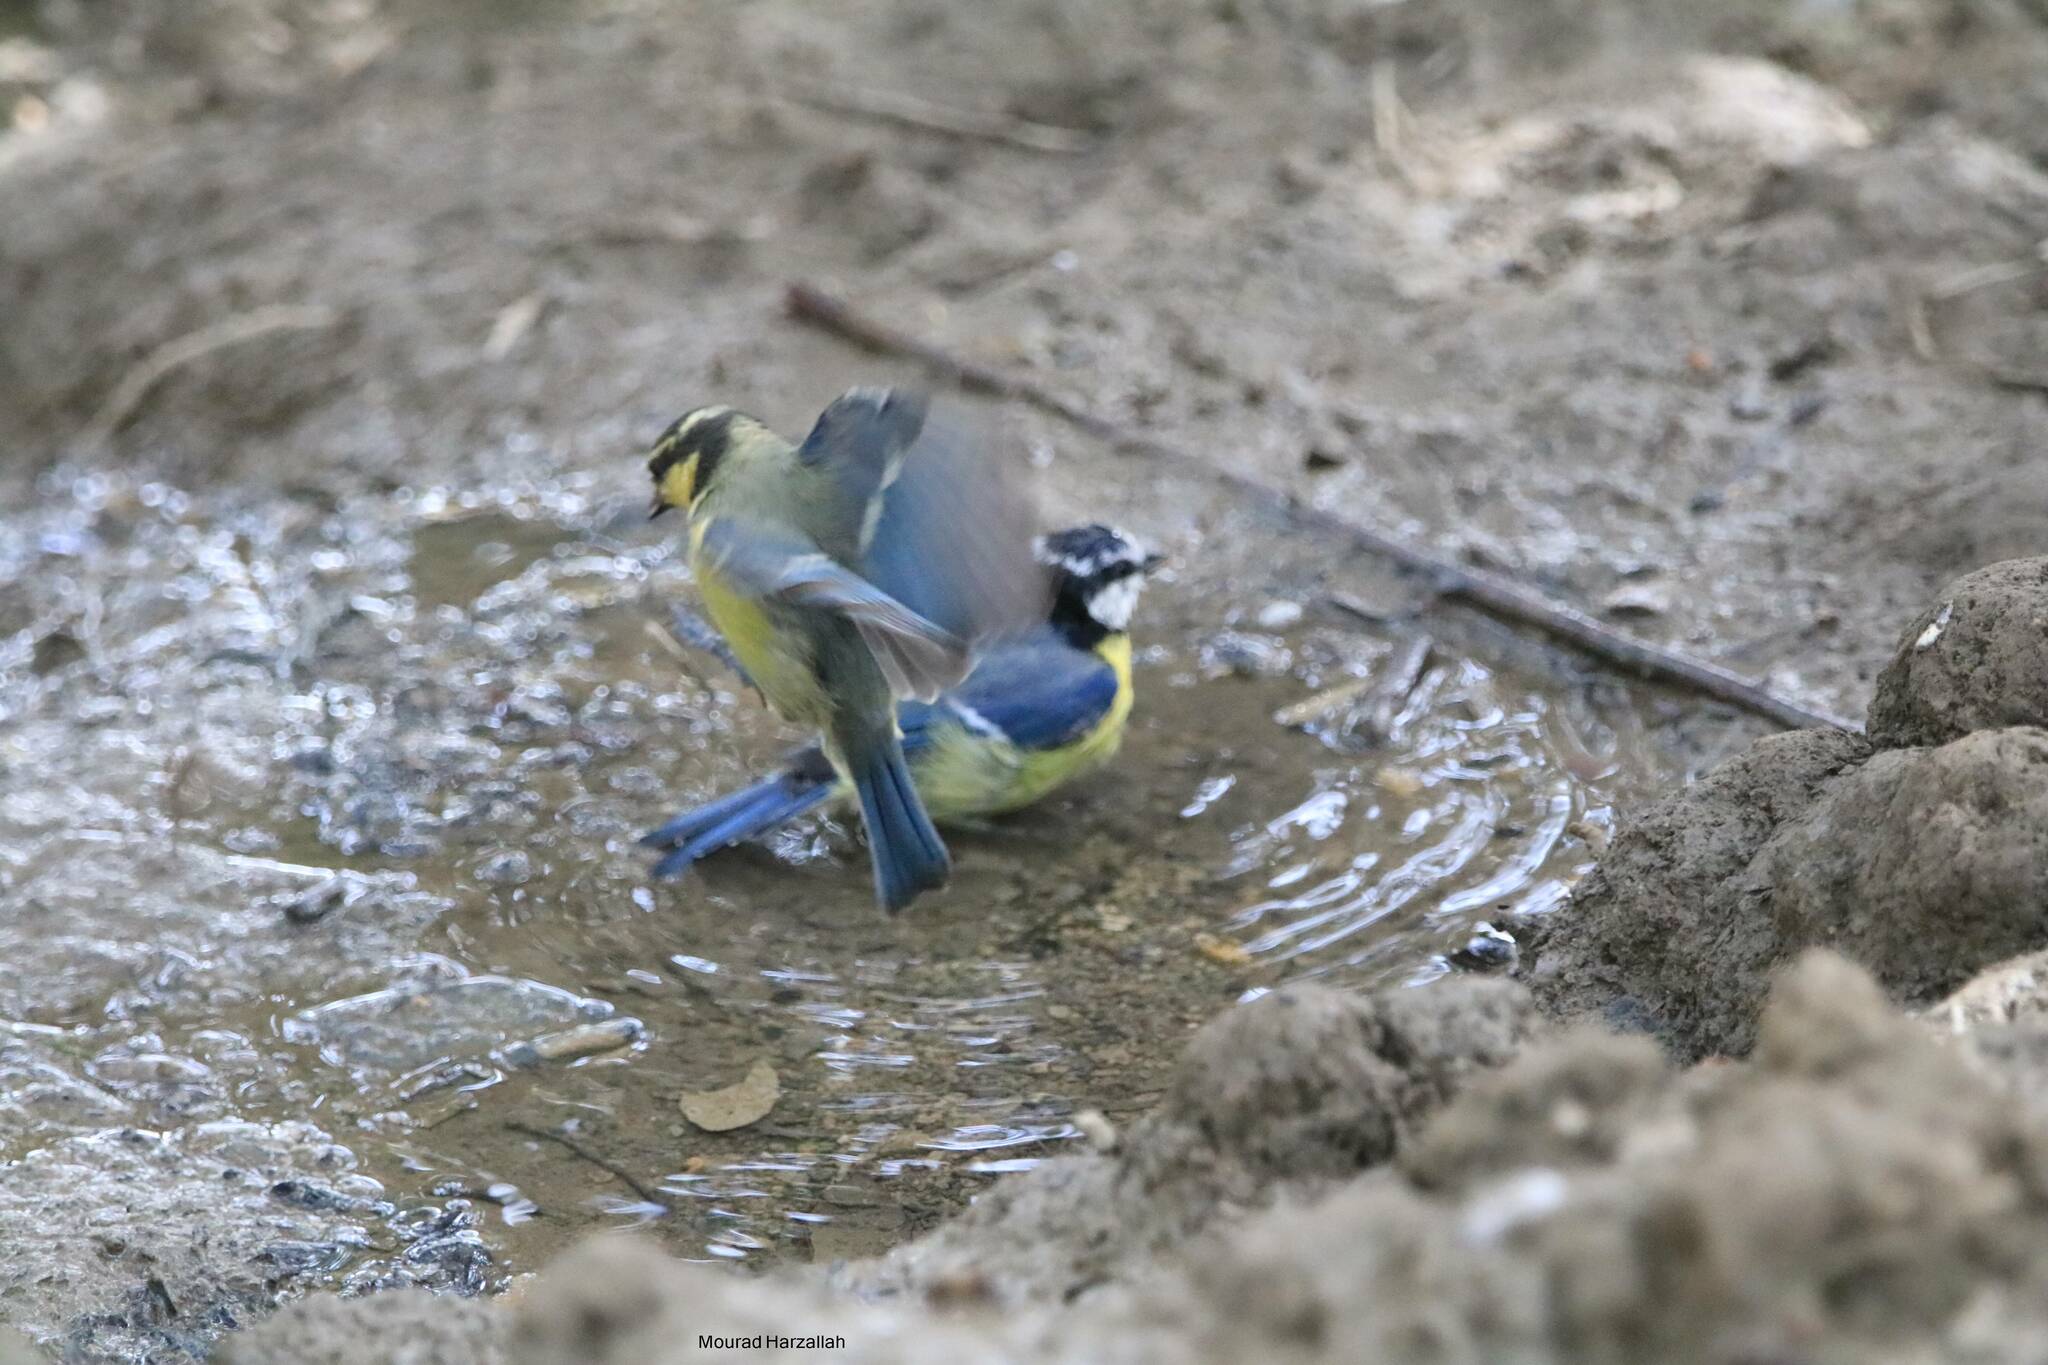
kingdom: Animalia
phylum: Chordata
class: Aves
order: Passeriformes
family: Paridae
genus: Cyanistes
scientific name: Cyanistes teneriffae
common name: African blue tit
